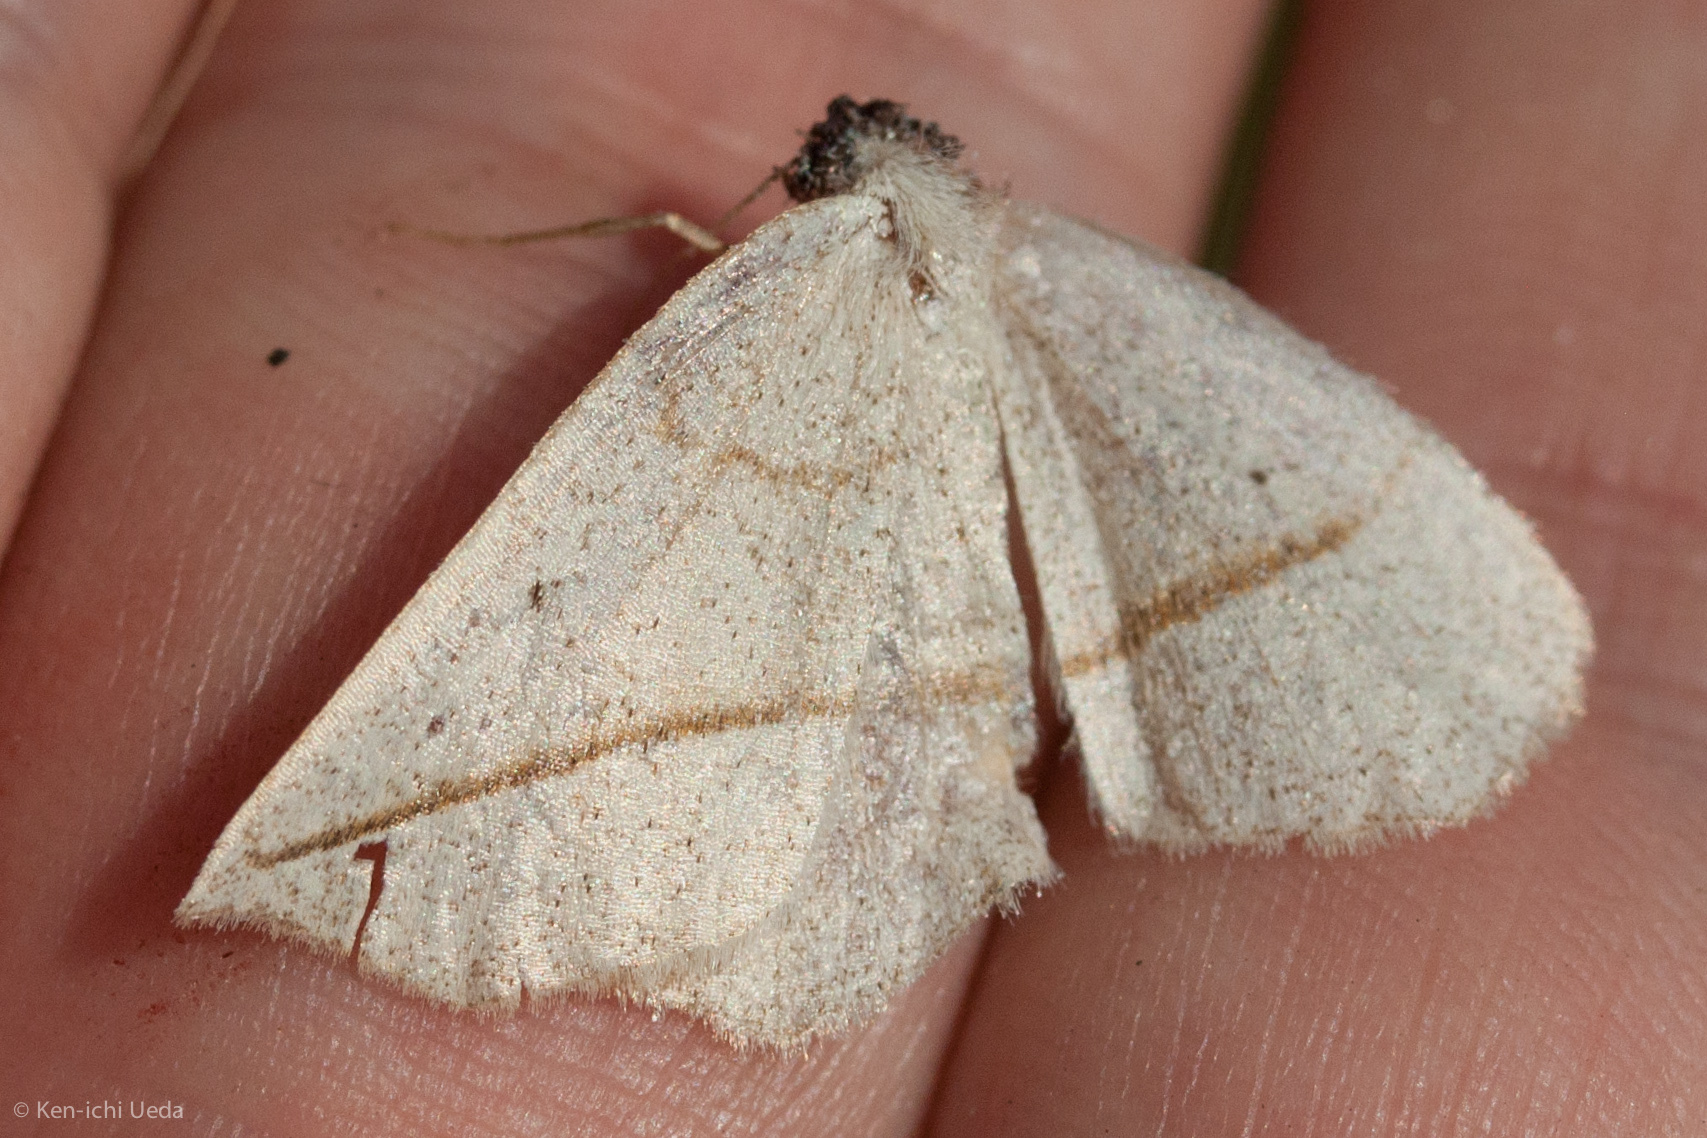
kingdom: Animalia
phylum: Arthropoda
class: Insecta
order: Lepidoptera
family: Geometridae
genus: Eusarca
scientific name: Eusarca confusaria
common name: Confused eusarca
